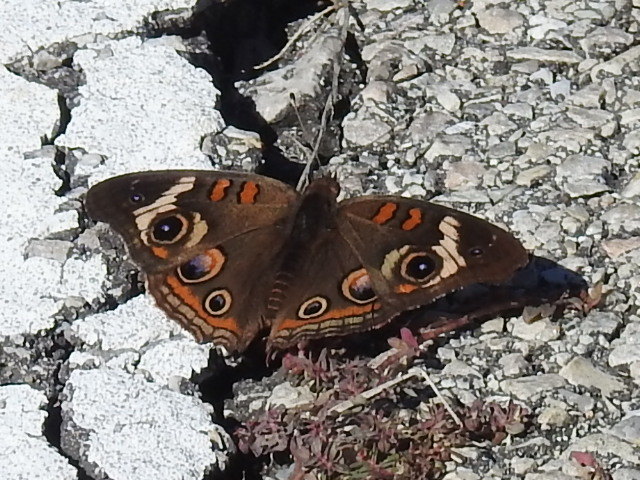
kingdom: Animalia
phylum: Arthropoda
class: Insecta
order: Lepidoptera
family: Nymphalidae
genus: Junonia
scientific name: Junonia coenia
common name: Common buckeye
